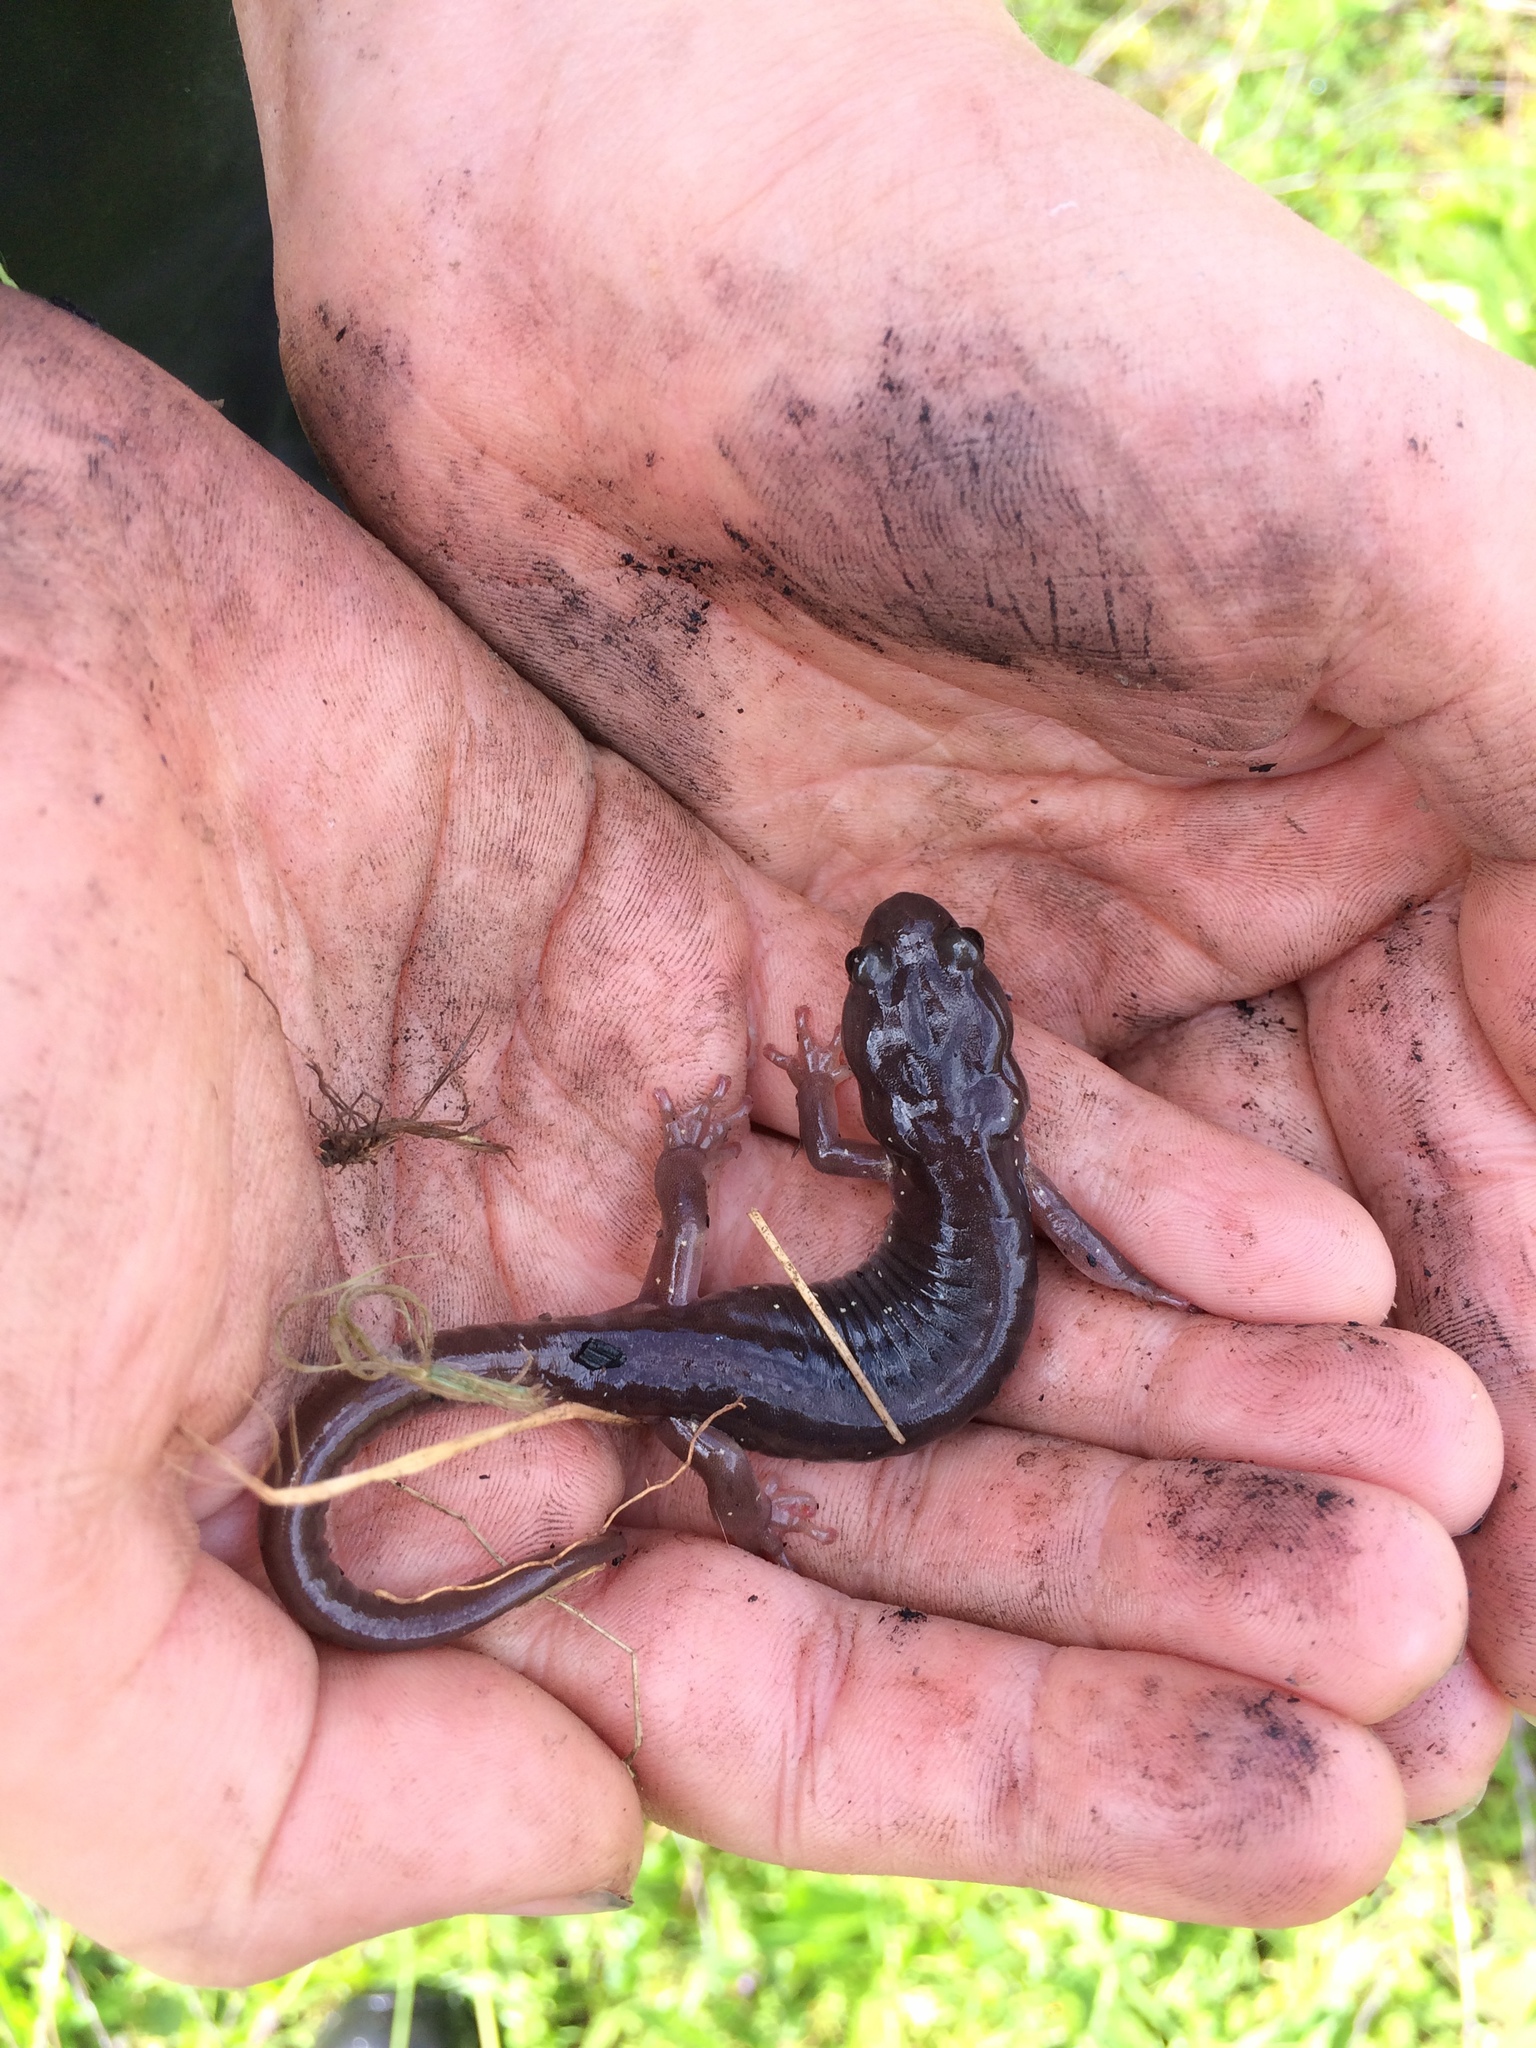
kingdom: Animalia
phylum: Chordata
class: Amphibia
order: Caudata
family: Plethodontidae
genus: Aneides
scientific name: Aneides lugubris
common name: Arboreal salamander
